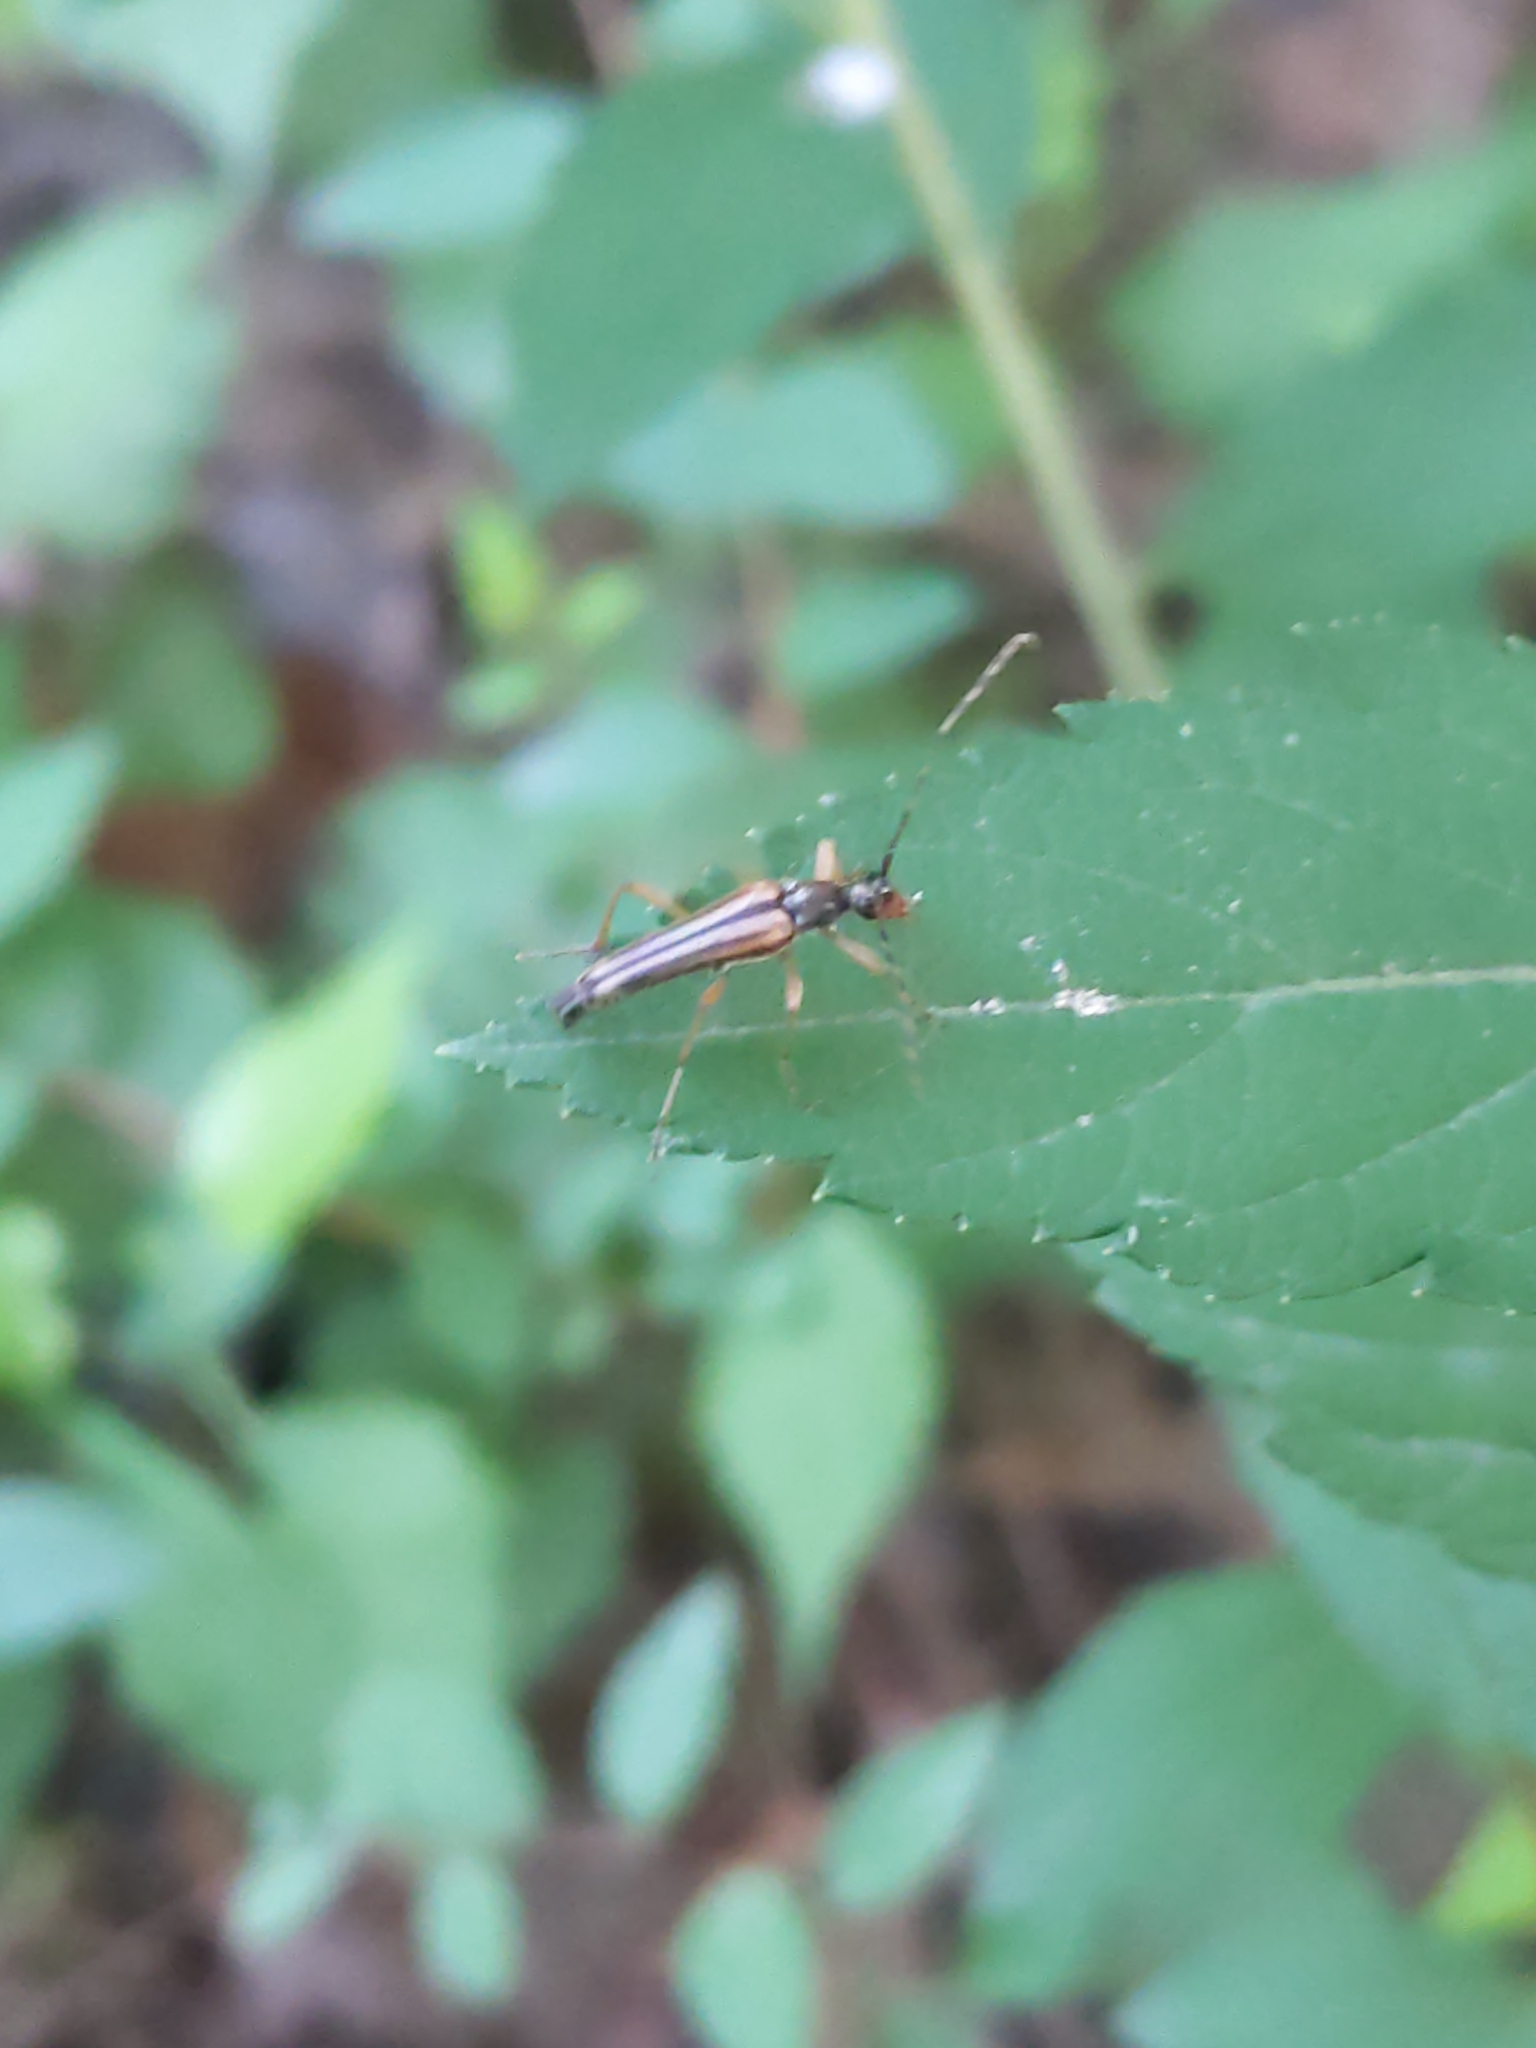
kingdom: Animalia
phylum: Arthropoda
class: Insecta
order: Coleoptera
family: Cerambycidae
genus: Analeptura
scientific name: Analeptura lineola
